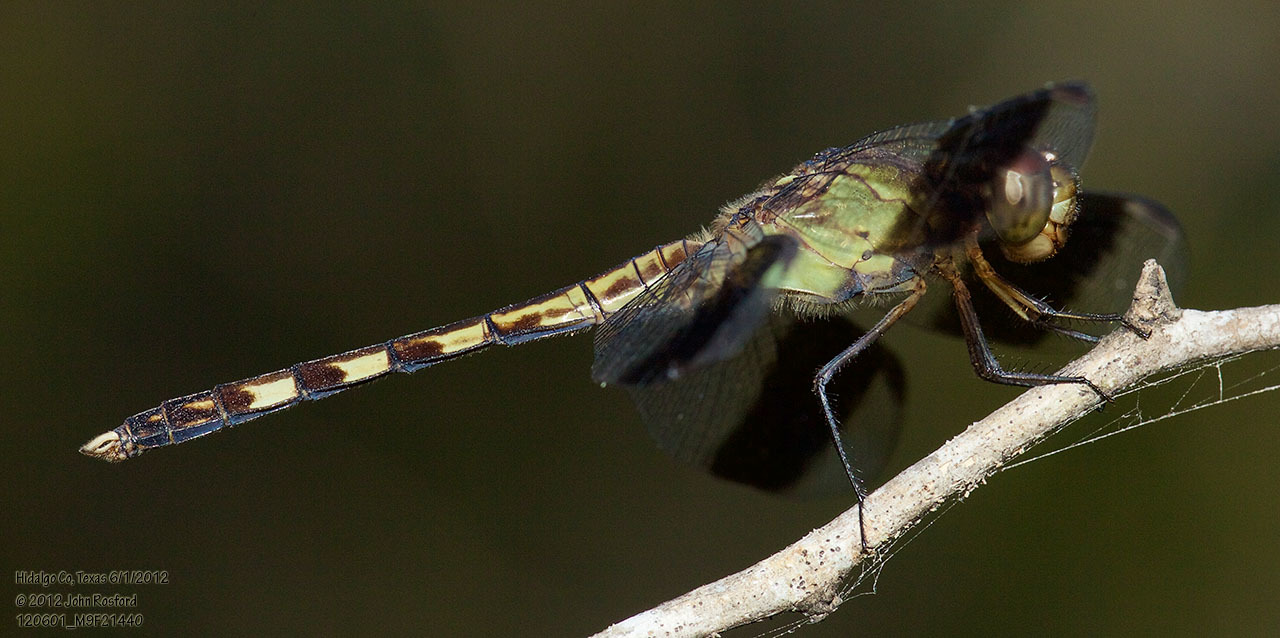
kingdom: Animalia
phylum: Arthropoda
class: Insecta
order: Odonata
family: Libellulidae
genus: Erythrodiplax
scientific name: Erythrodiplax umbrata
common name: Band-winged dragonlet
